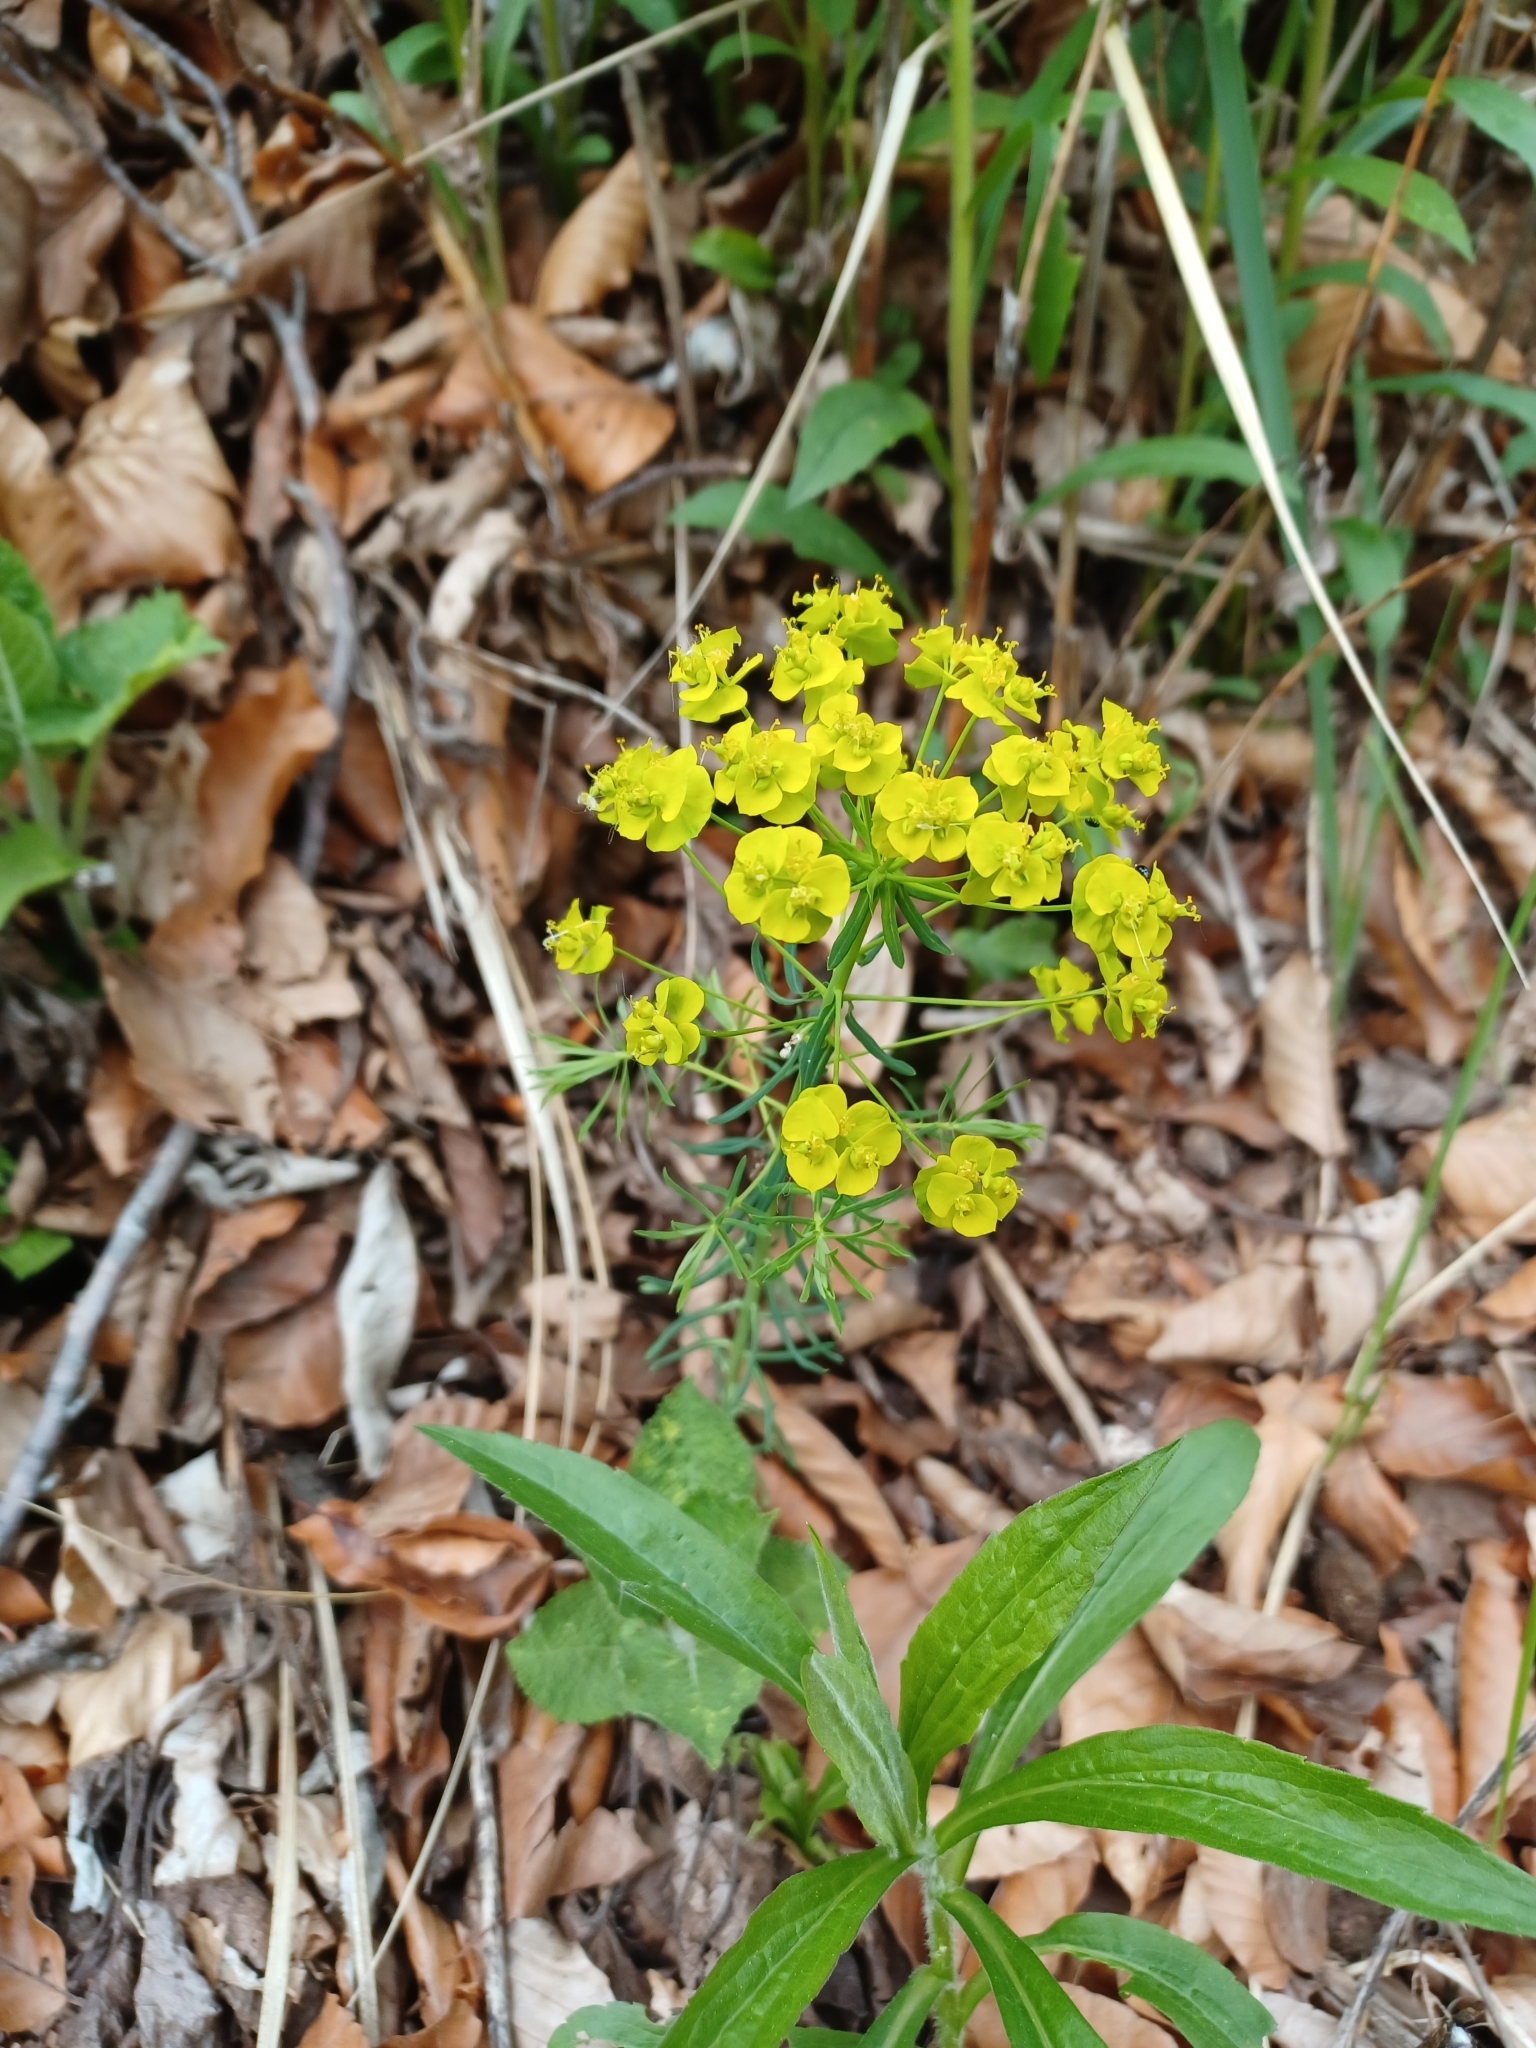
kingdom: Plantae
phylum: Tracheophyta
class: Magnoliopsida
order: Malpighiales
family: Euphorbiaceae
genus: Euphorbia
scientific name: Euphorbia cyparissias
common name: Cypress spurge
